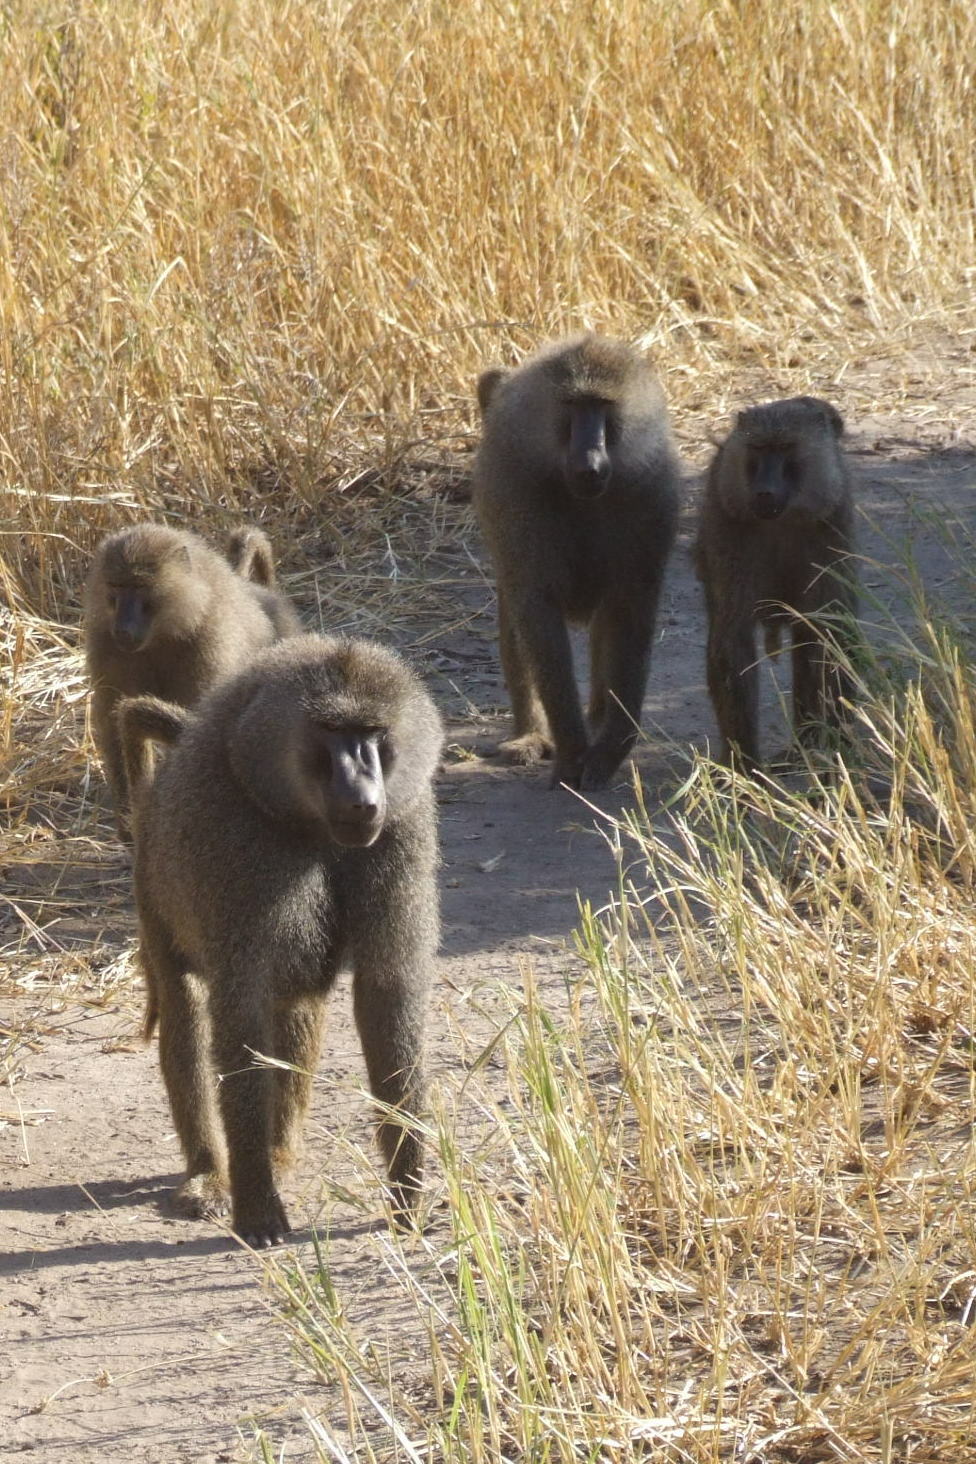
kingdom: Animalia
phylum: Chordata
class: Mammalia
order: Primates
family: Cercopithecidae
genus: Papio
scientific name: Papio anubis
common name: Olive baboon
